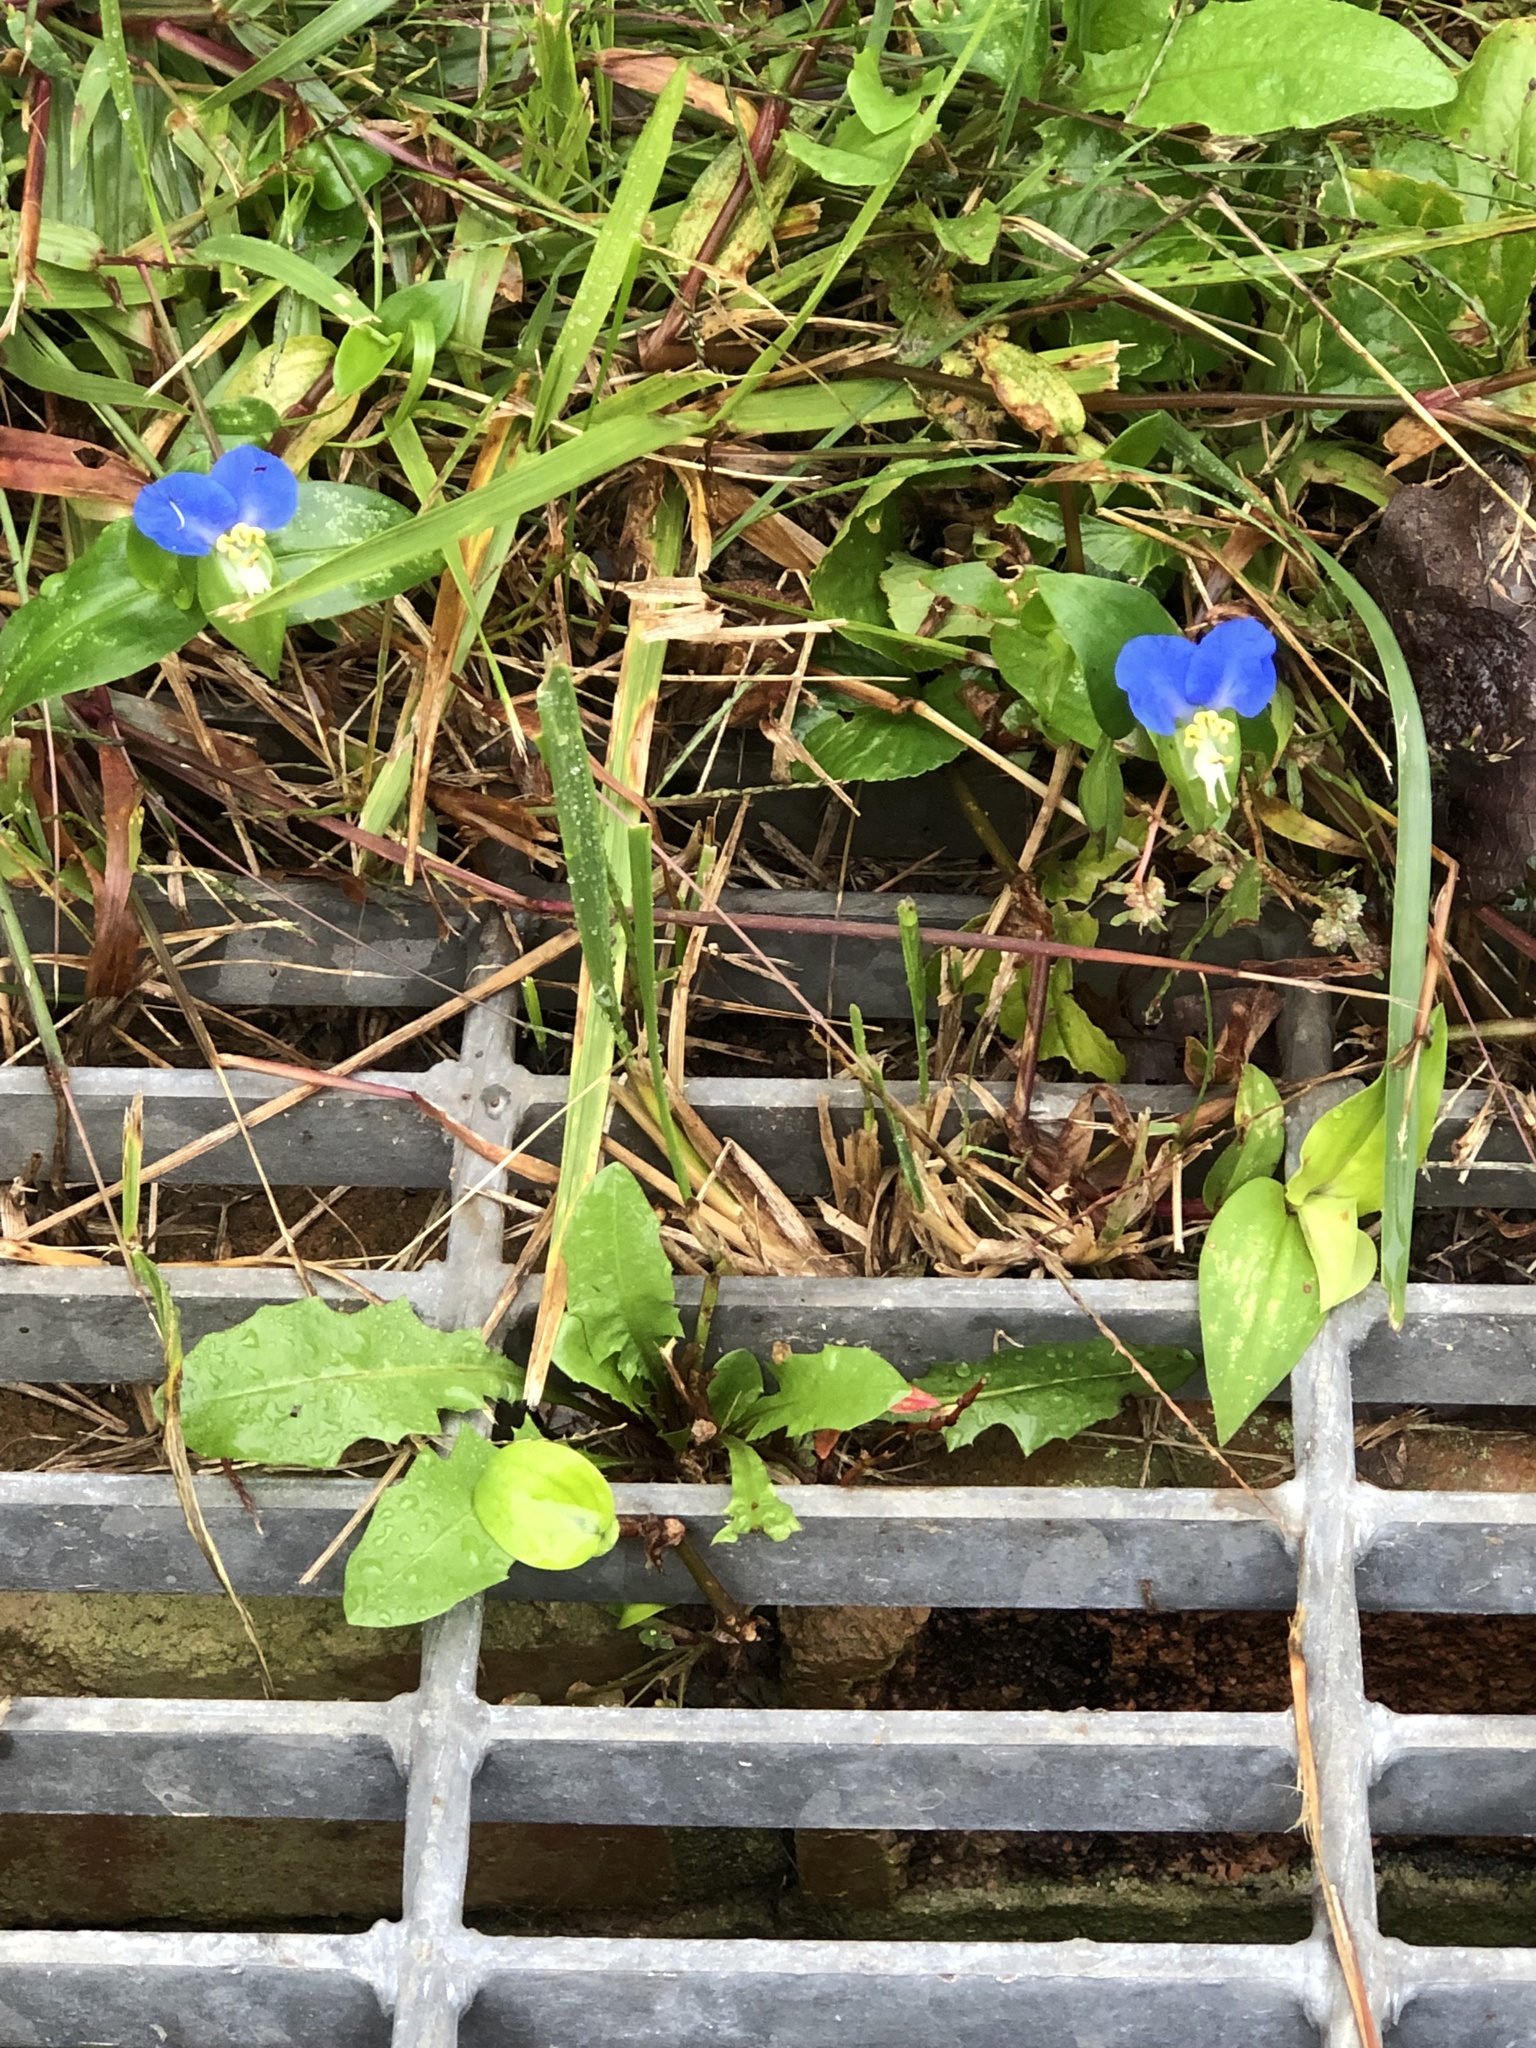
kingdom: Plantae
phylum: Tracheophyta
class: Liliopsida
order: Commelinales
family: Commelinaceae
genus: Commelina
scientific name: Commelina communis
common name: Asiatic dayflower
